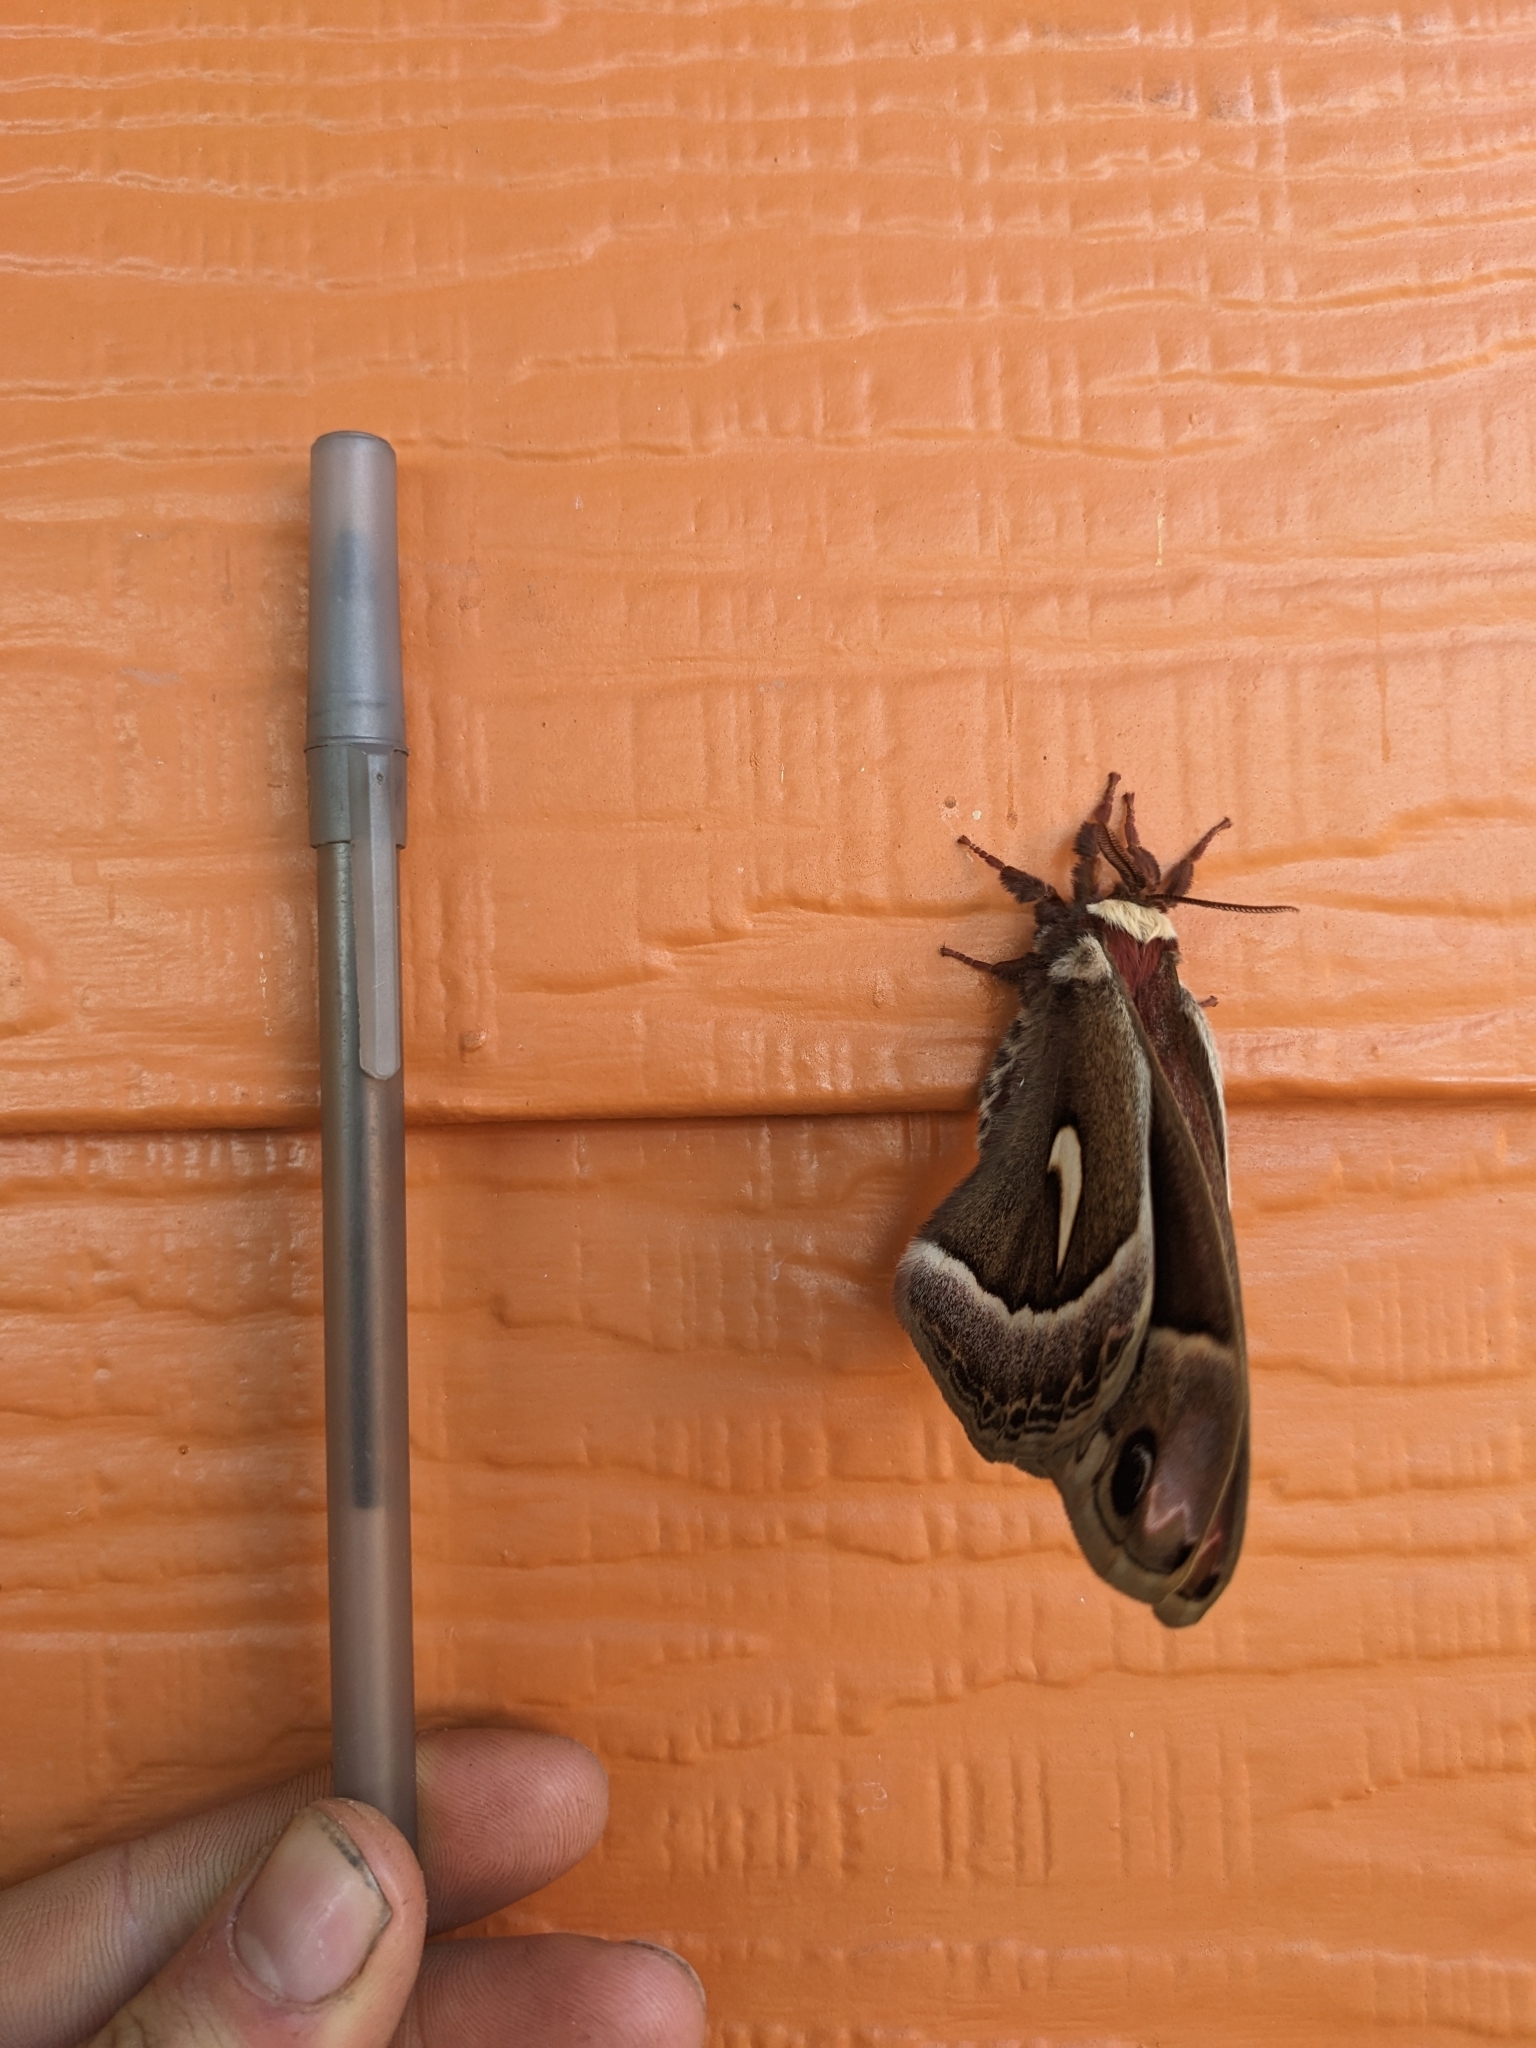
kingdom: Animalia
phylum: Arthropoda
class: Insecta
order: Lepidoptera
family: Saturniidae
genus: Hyalophora
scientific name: Hyalophora euryalus
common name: Ceanothus silkmoth
